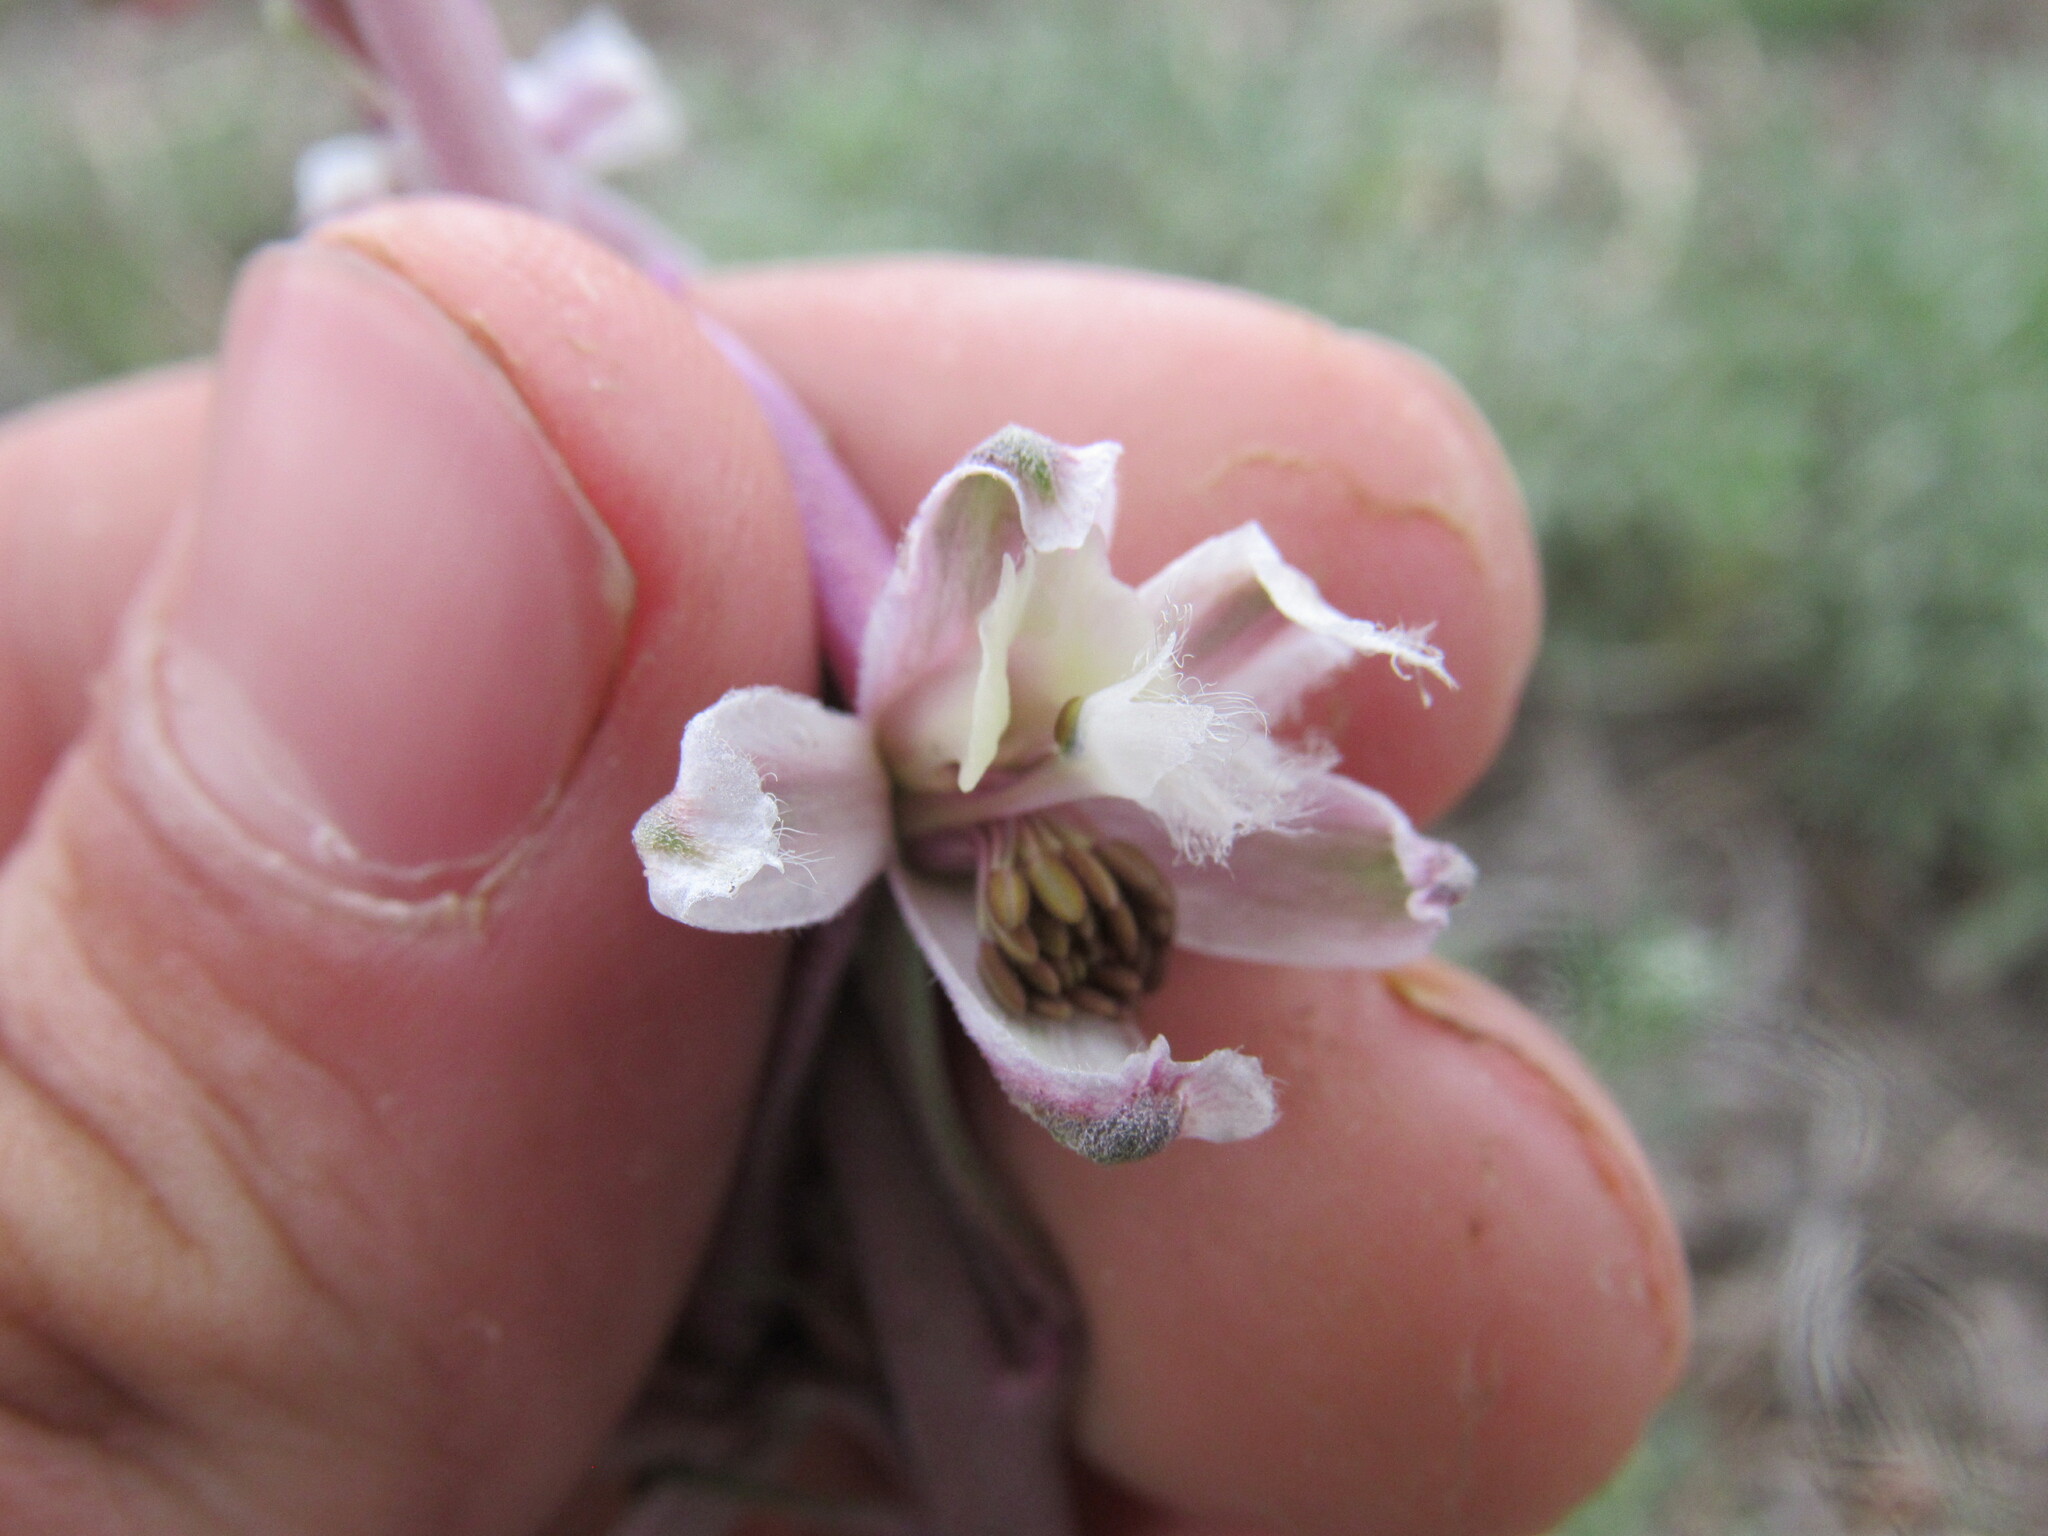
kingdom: Plantae
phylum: Tracheophyta
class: Magnoliopsida
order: Ranunculales
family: Ranunculaceae
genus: Delphinium
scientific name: Delphinium wootonii
